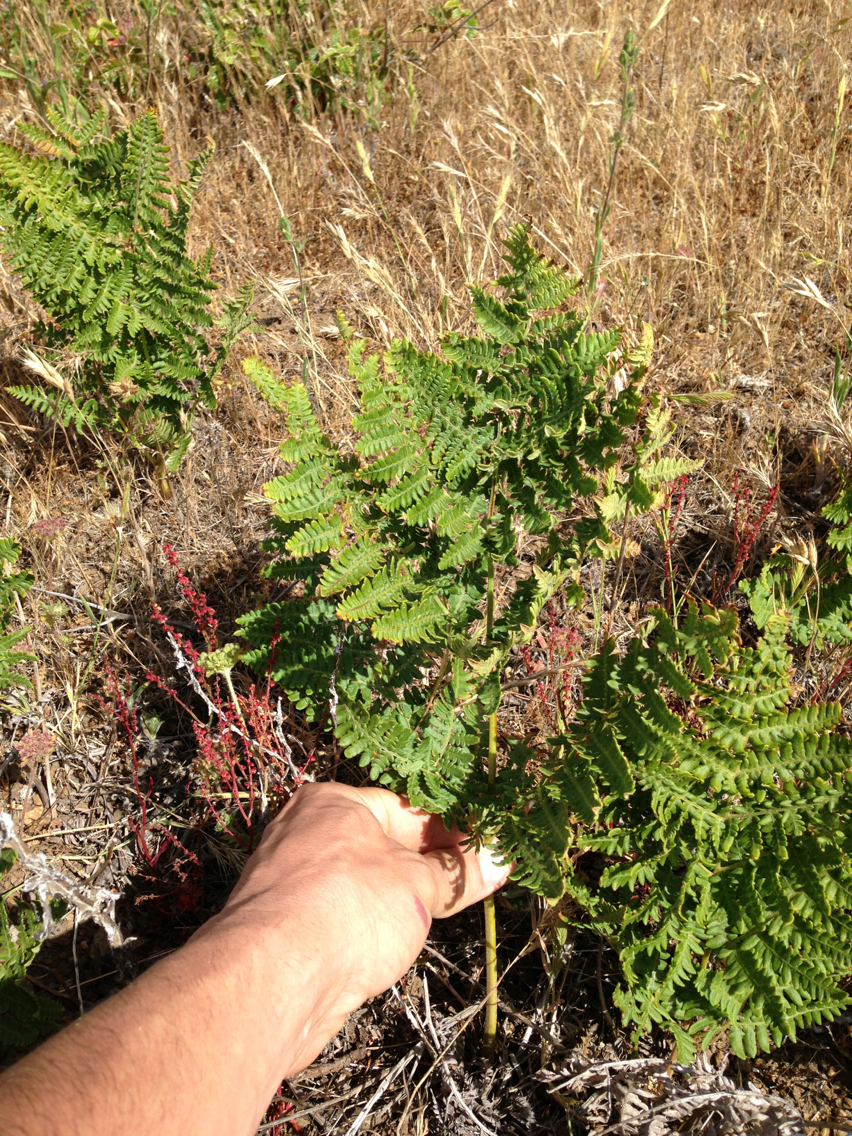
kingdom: Plantae
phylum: Tracheophyta
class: Polypodiopsida
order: Polypodiales
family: Dennstaedtiaceae
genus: Pteridium
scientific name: Pteridium aquilinum
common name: Bracken
